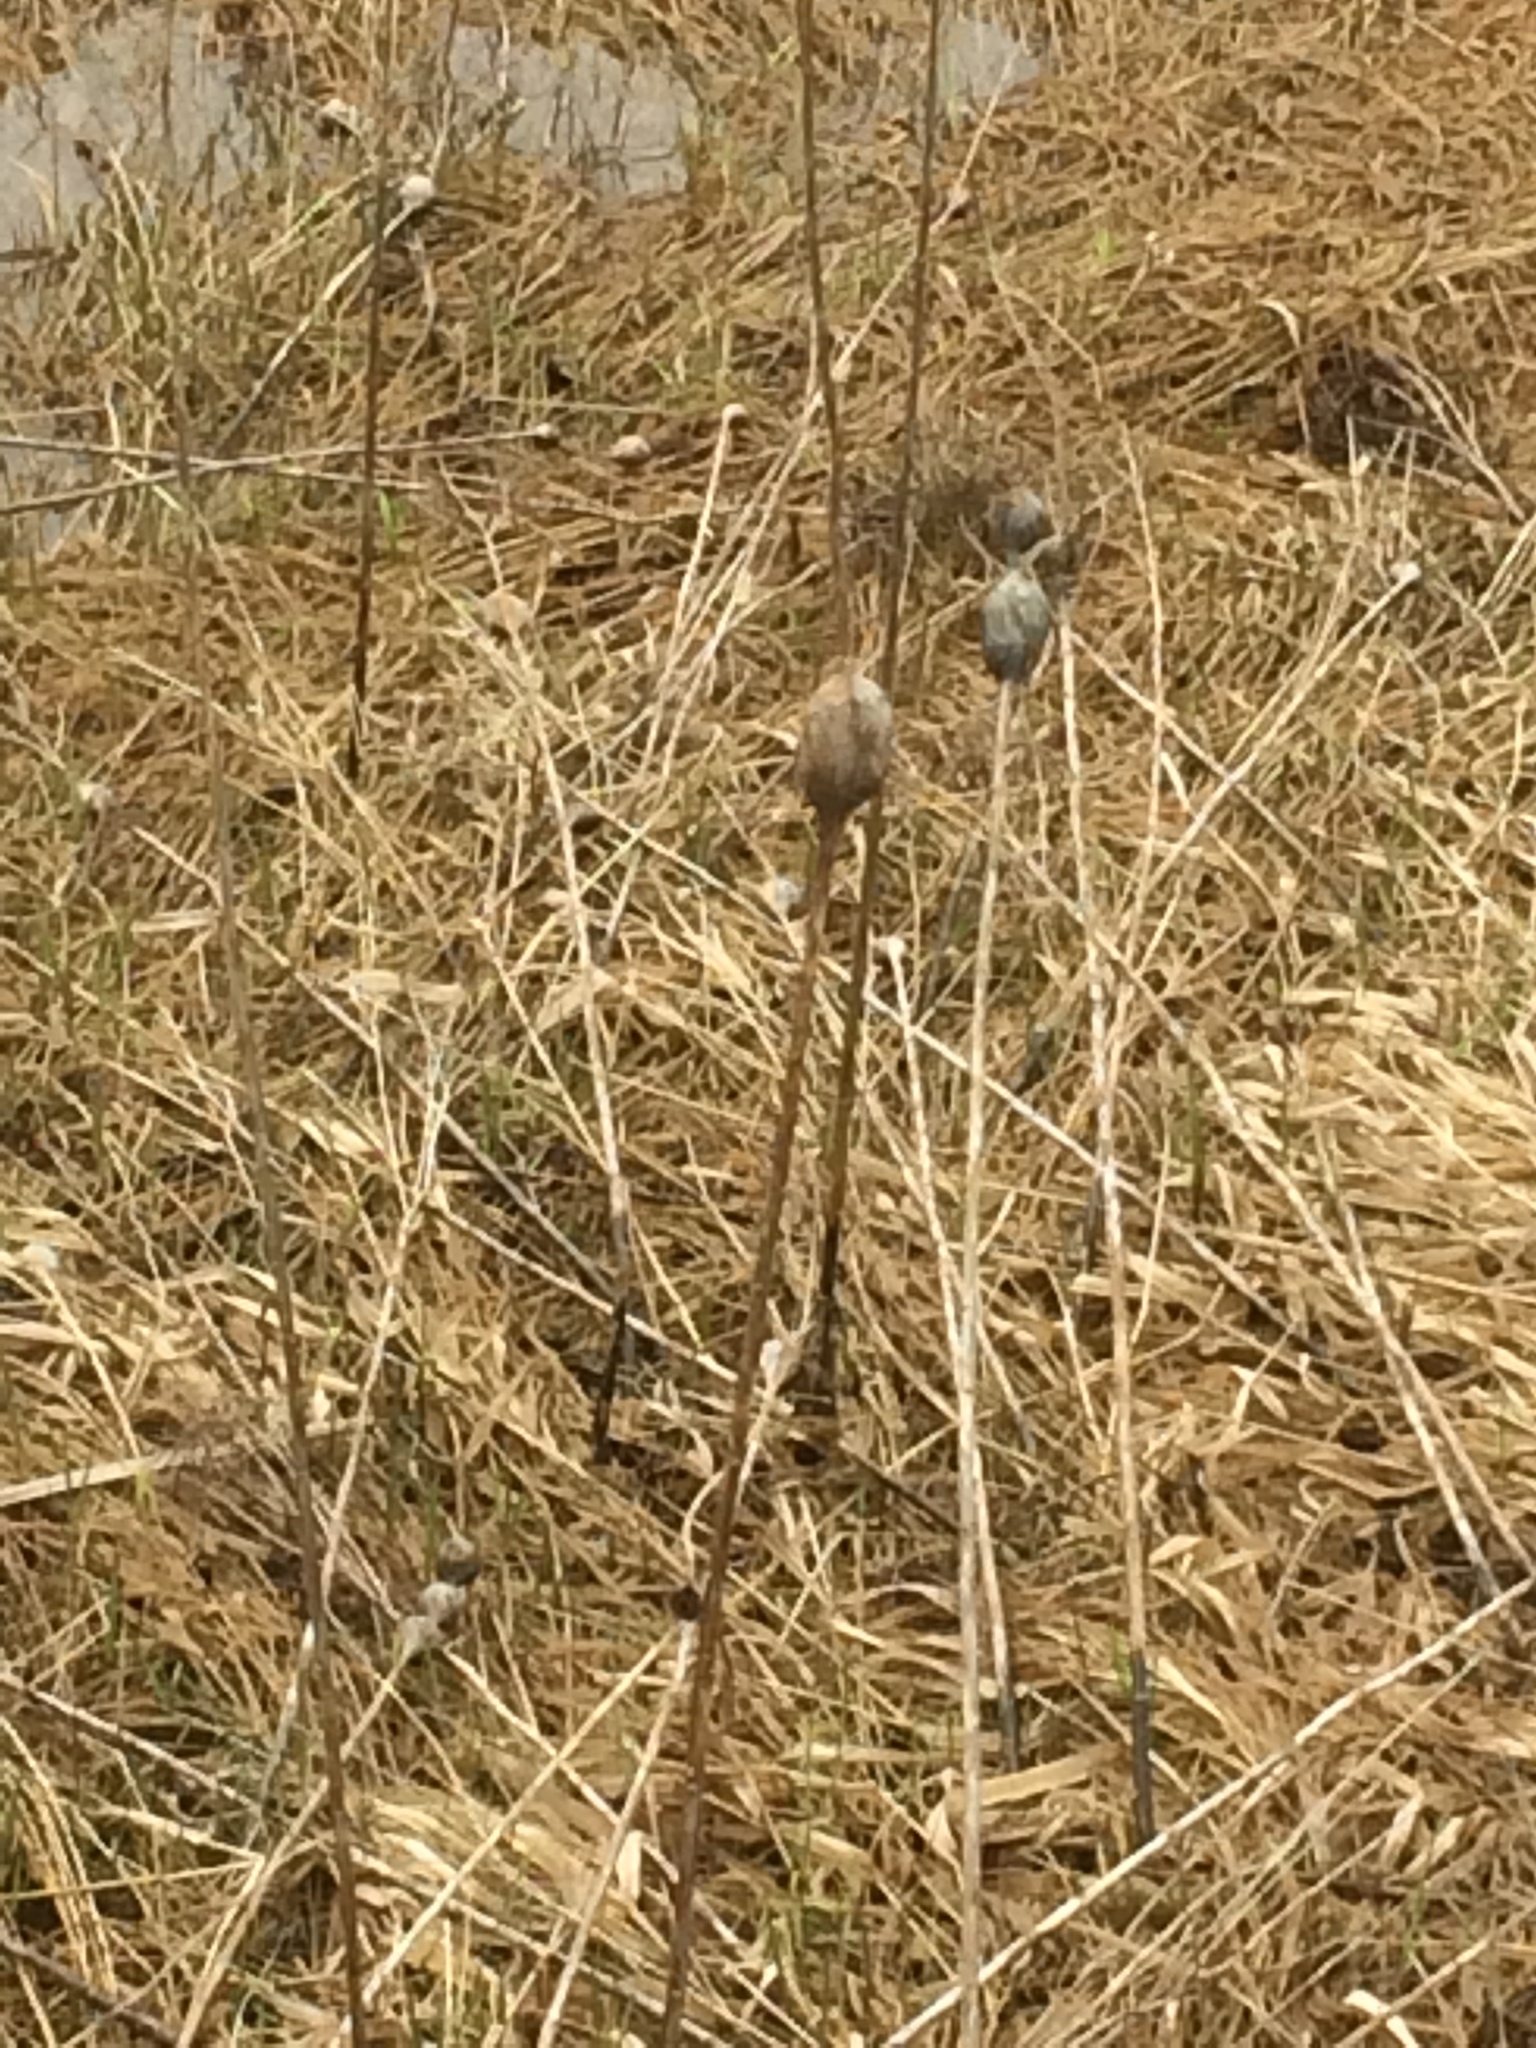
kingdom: Animalia
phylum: Arthropoda
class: Insecta
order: Diptera
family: Tephritidae
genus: Eurosta
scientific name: Eurosta solidaginis
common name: Goldenrod gall fly
